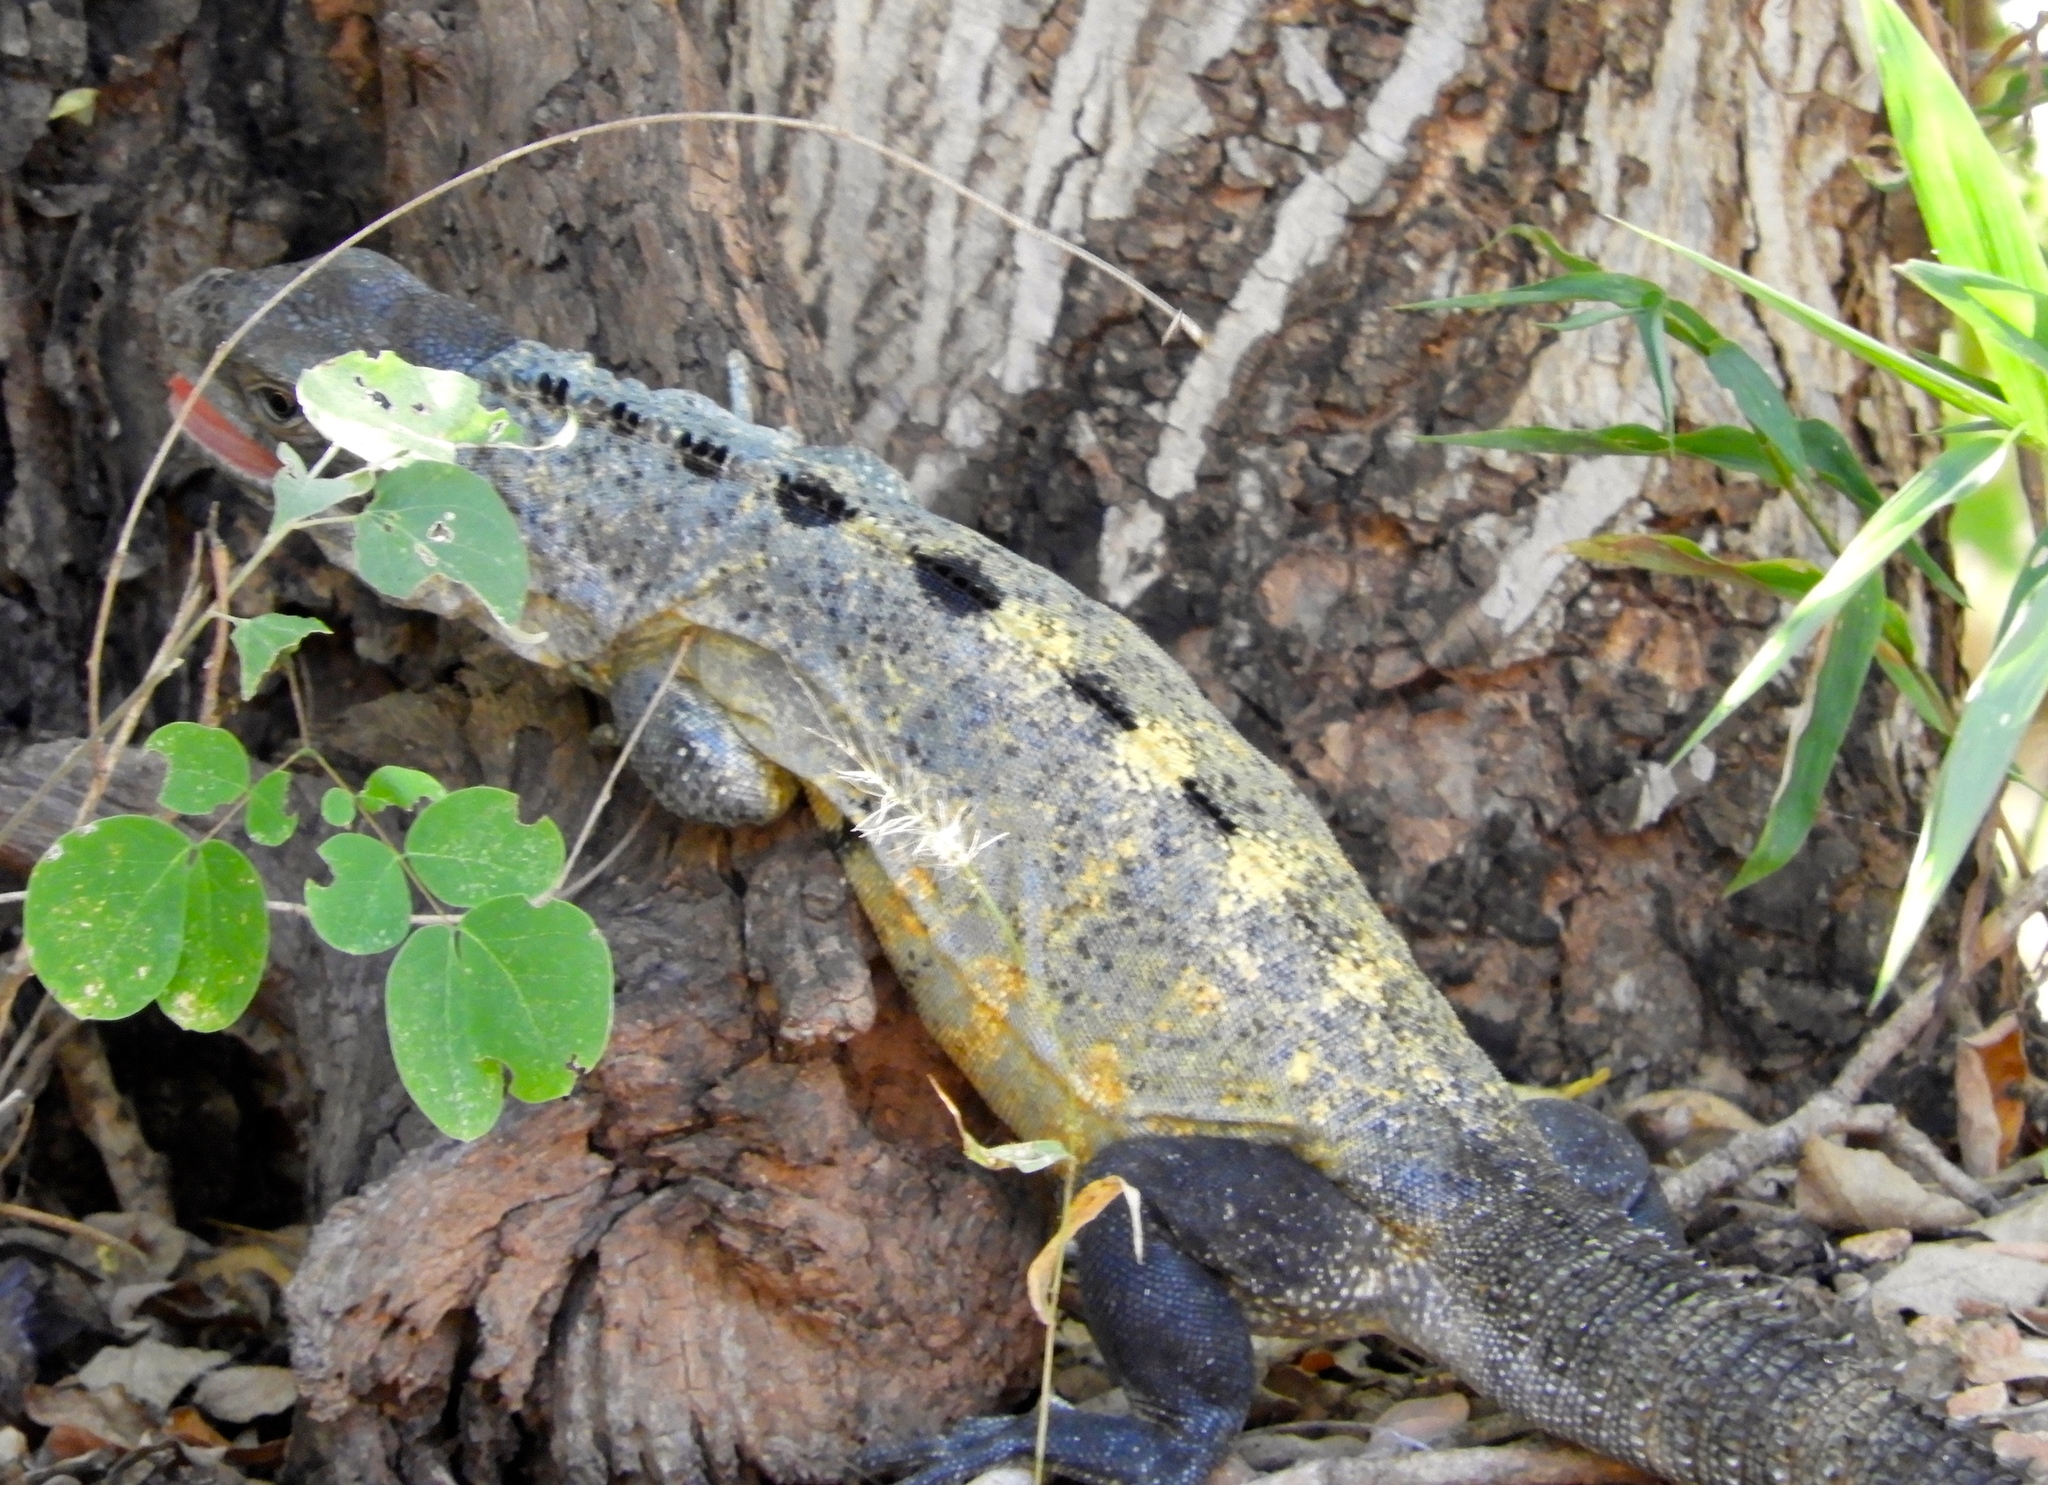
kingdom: Animalia
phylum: Chordata
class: Squamata
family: Iguanidae
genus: Ctenosaura
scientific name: Ctenosaura pectinata
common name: Guerreran spiny-tailed iguana
